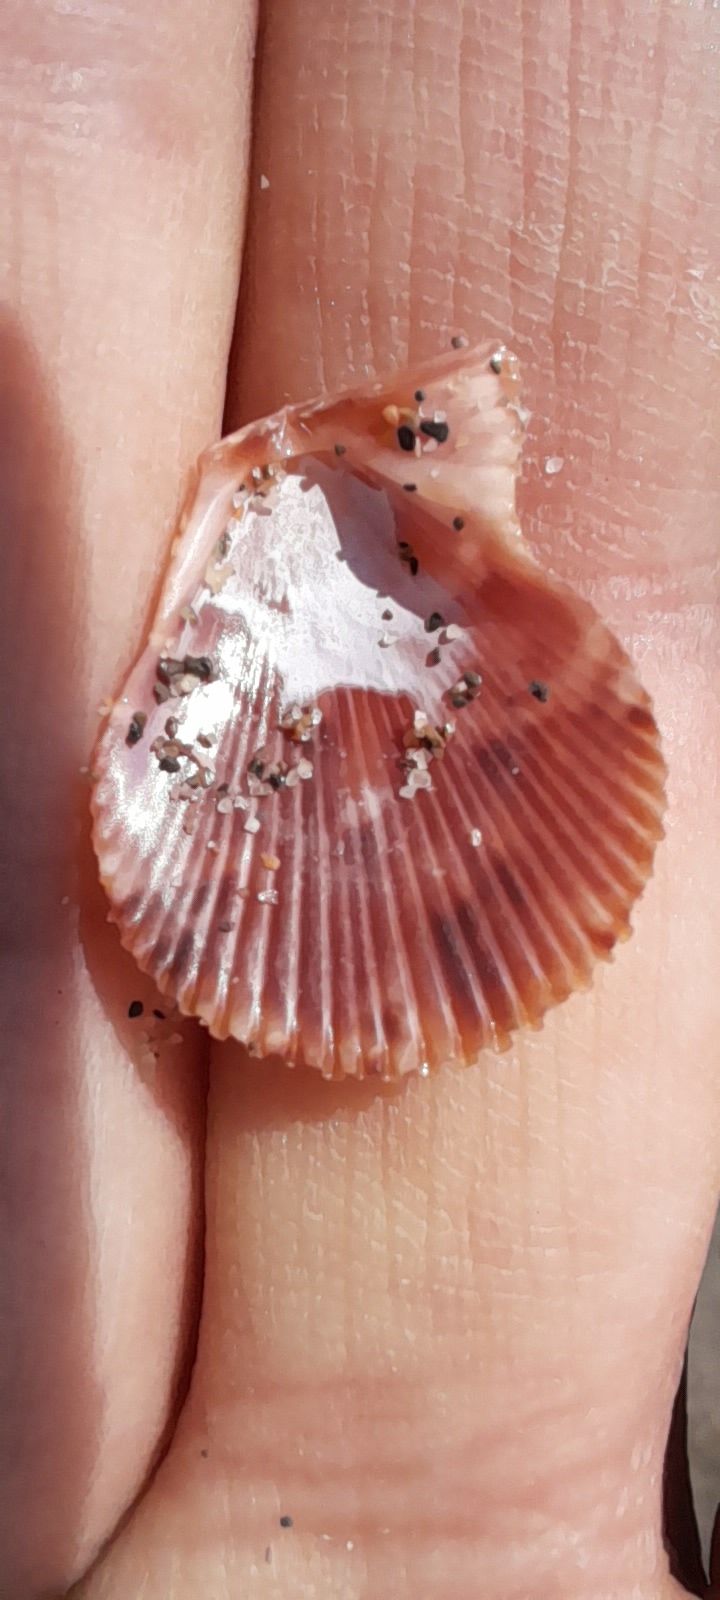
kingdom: Animalia
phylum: Mollusca
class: Bivalvia
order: Pectinida
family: Pectinidae
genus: Mimachlamys
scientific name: Mimachlamys varia
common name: Variegated scallop
